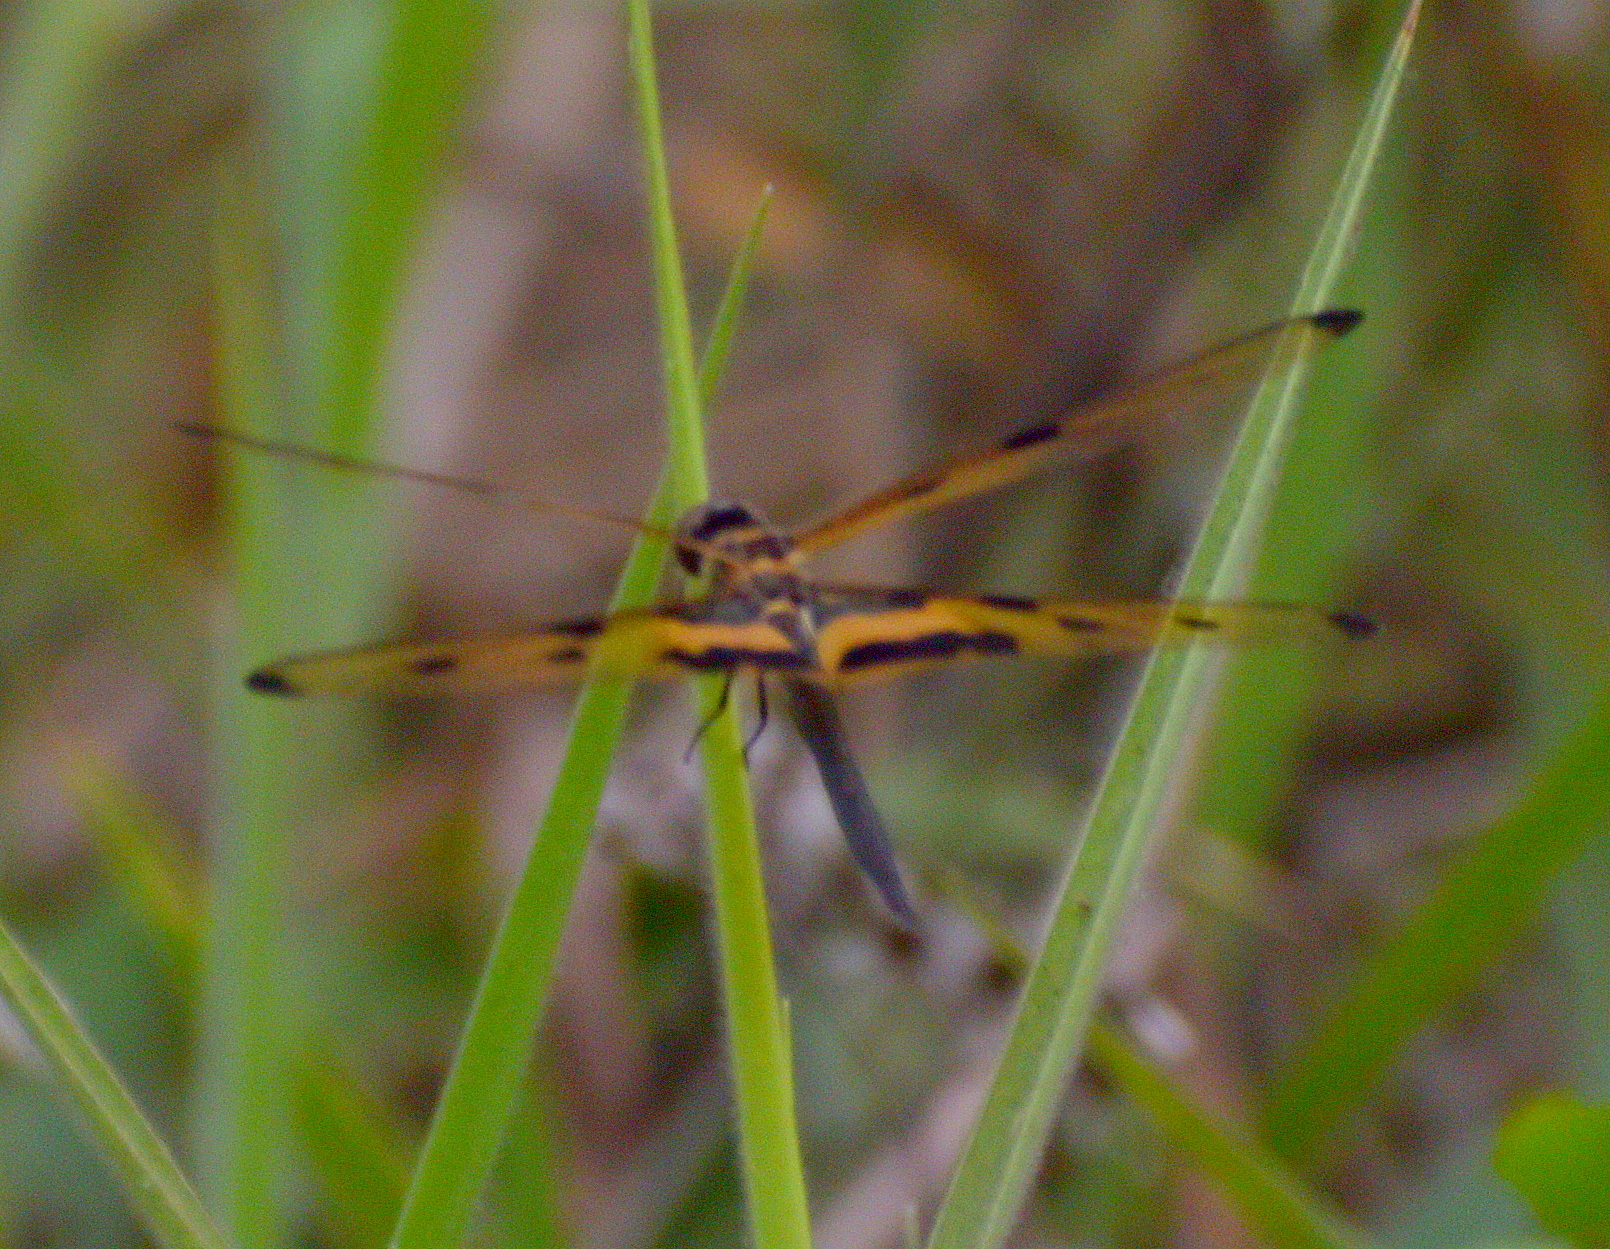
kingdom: Animalia
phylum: Arthropoda
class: Insecta
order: Odonata
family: Libellulidae
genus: Rhyothemis
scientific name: Rhyothemis variegata
